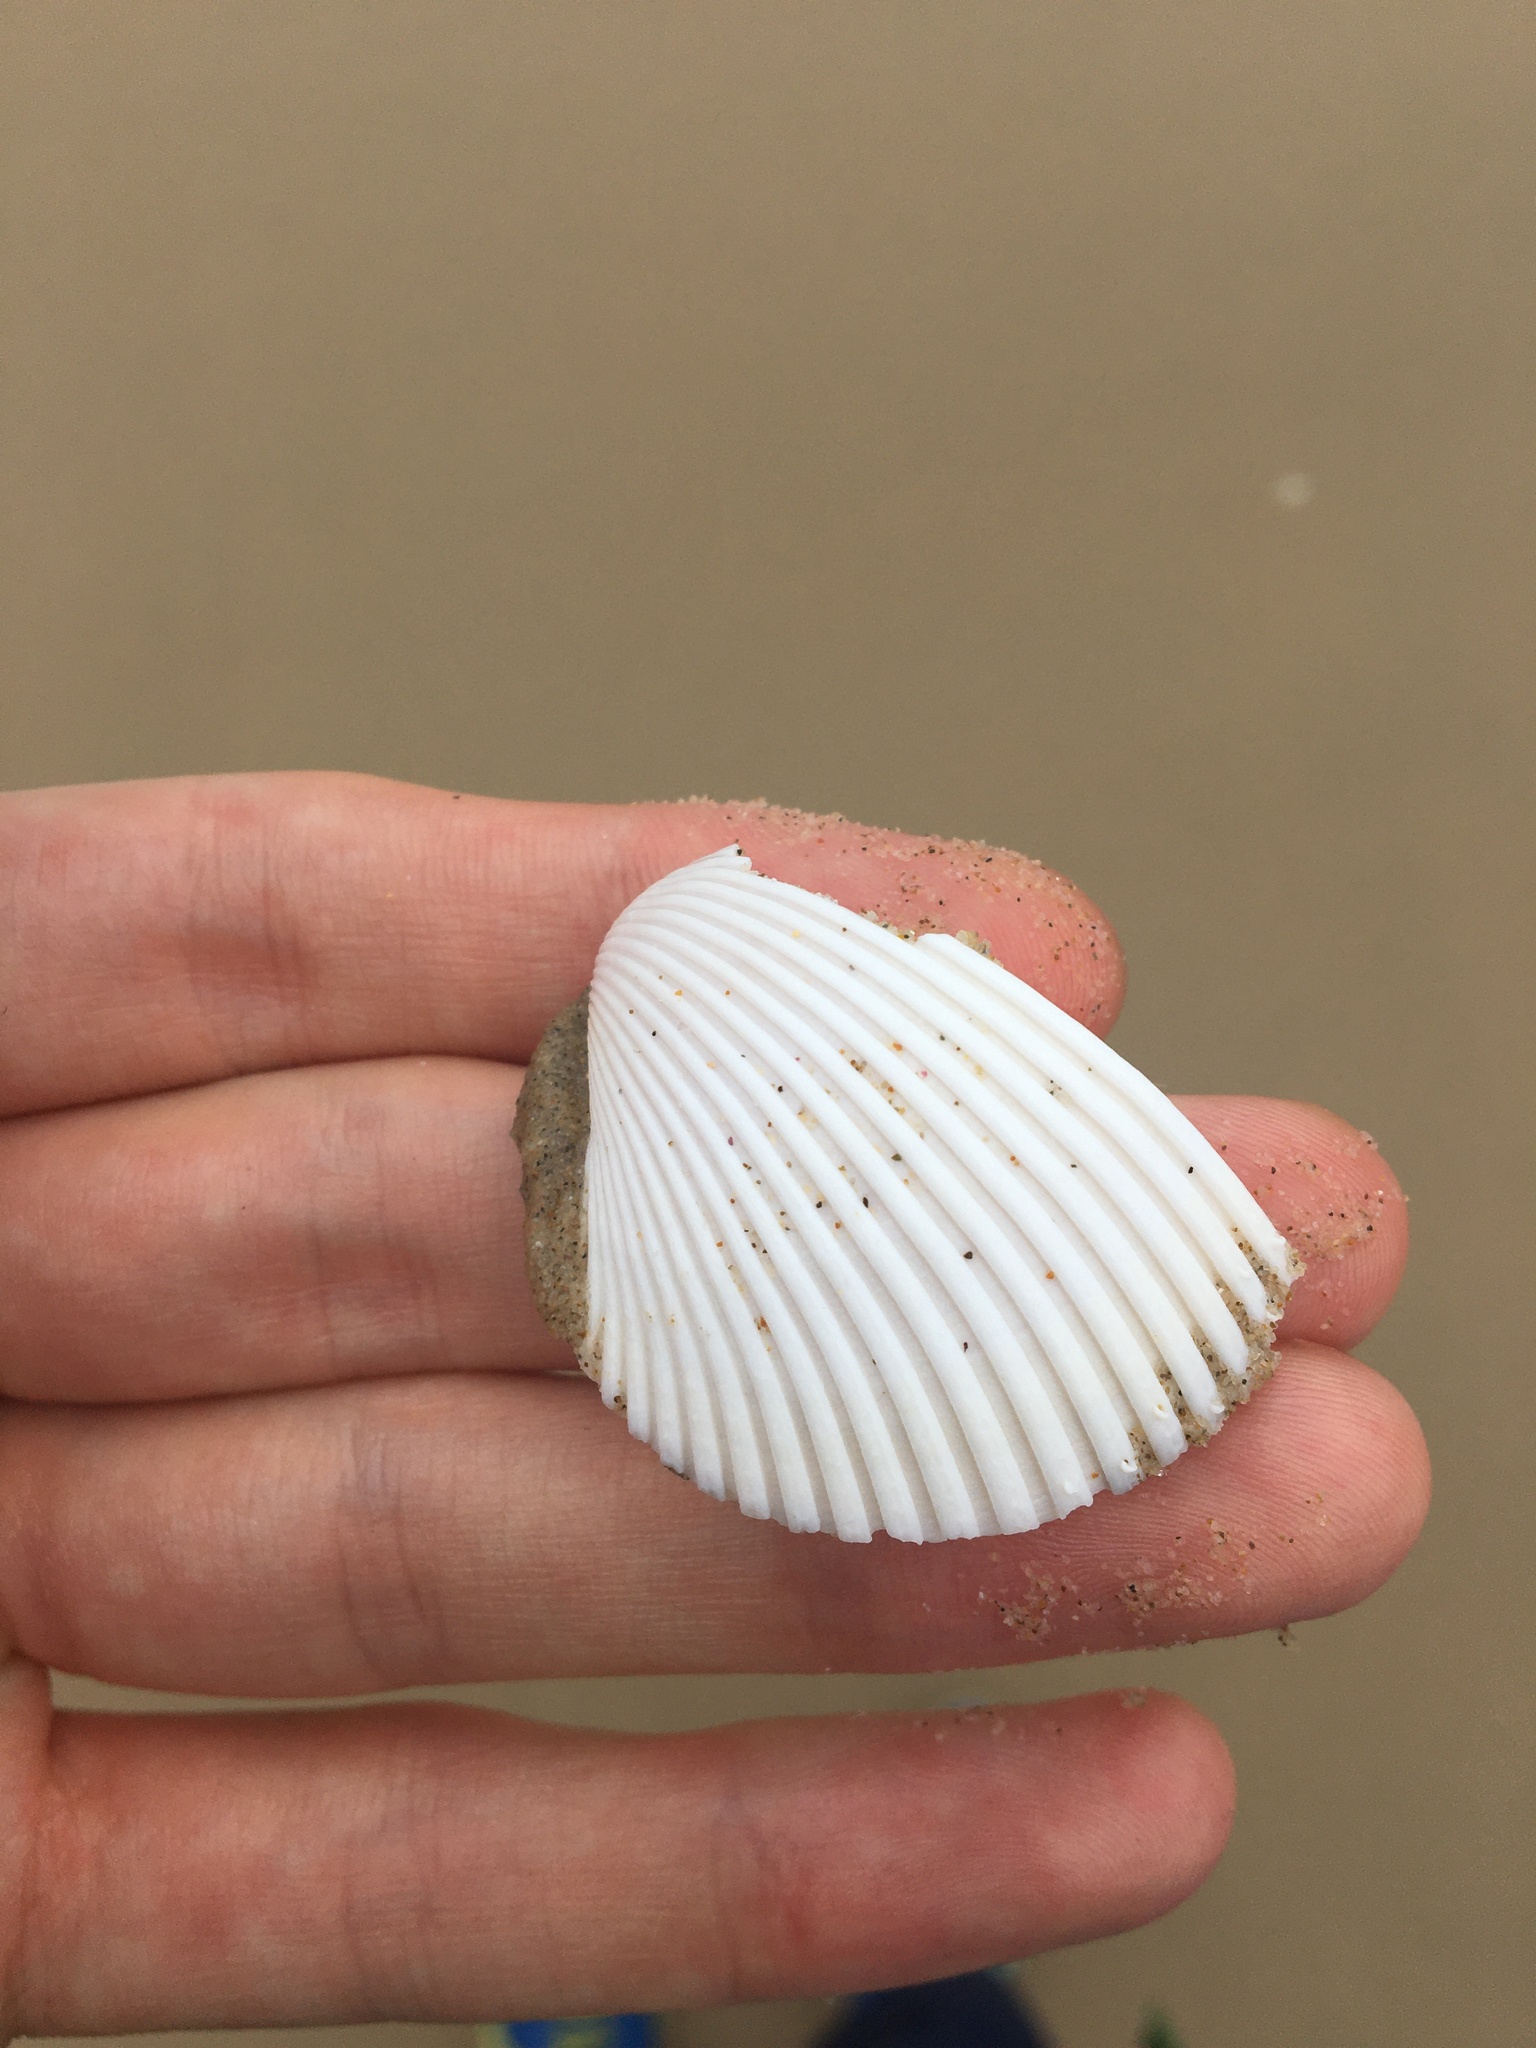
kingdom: Animalia
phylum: Mollusca
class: Bivalvia
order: Cardiida
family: Cardiidae
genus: Vepricardium
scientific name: Vepricardium multispinosum
